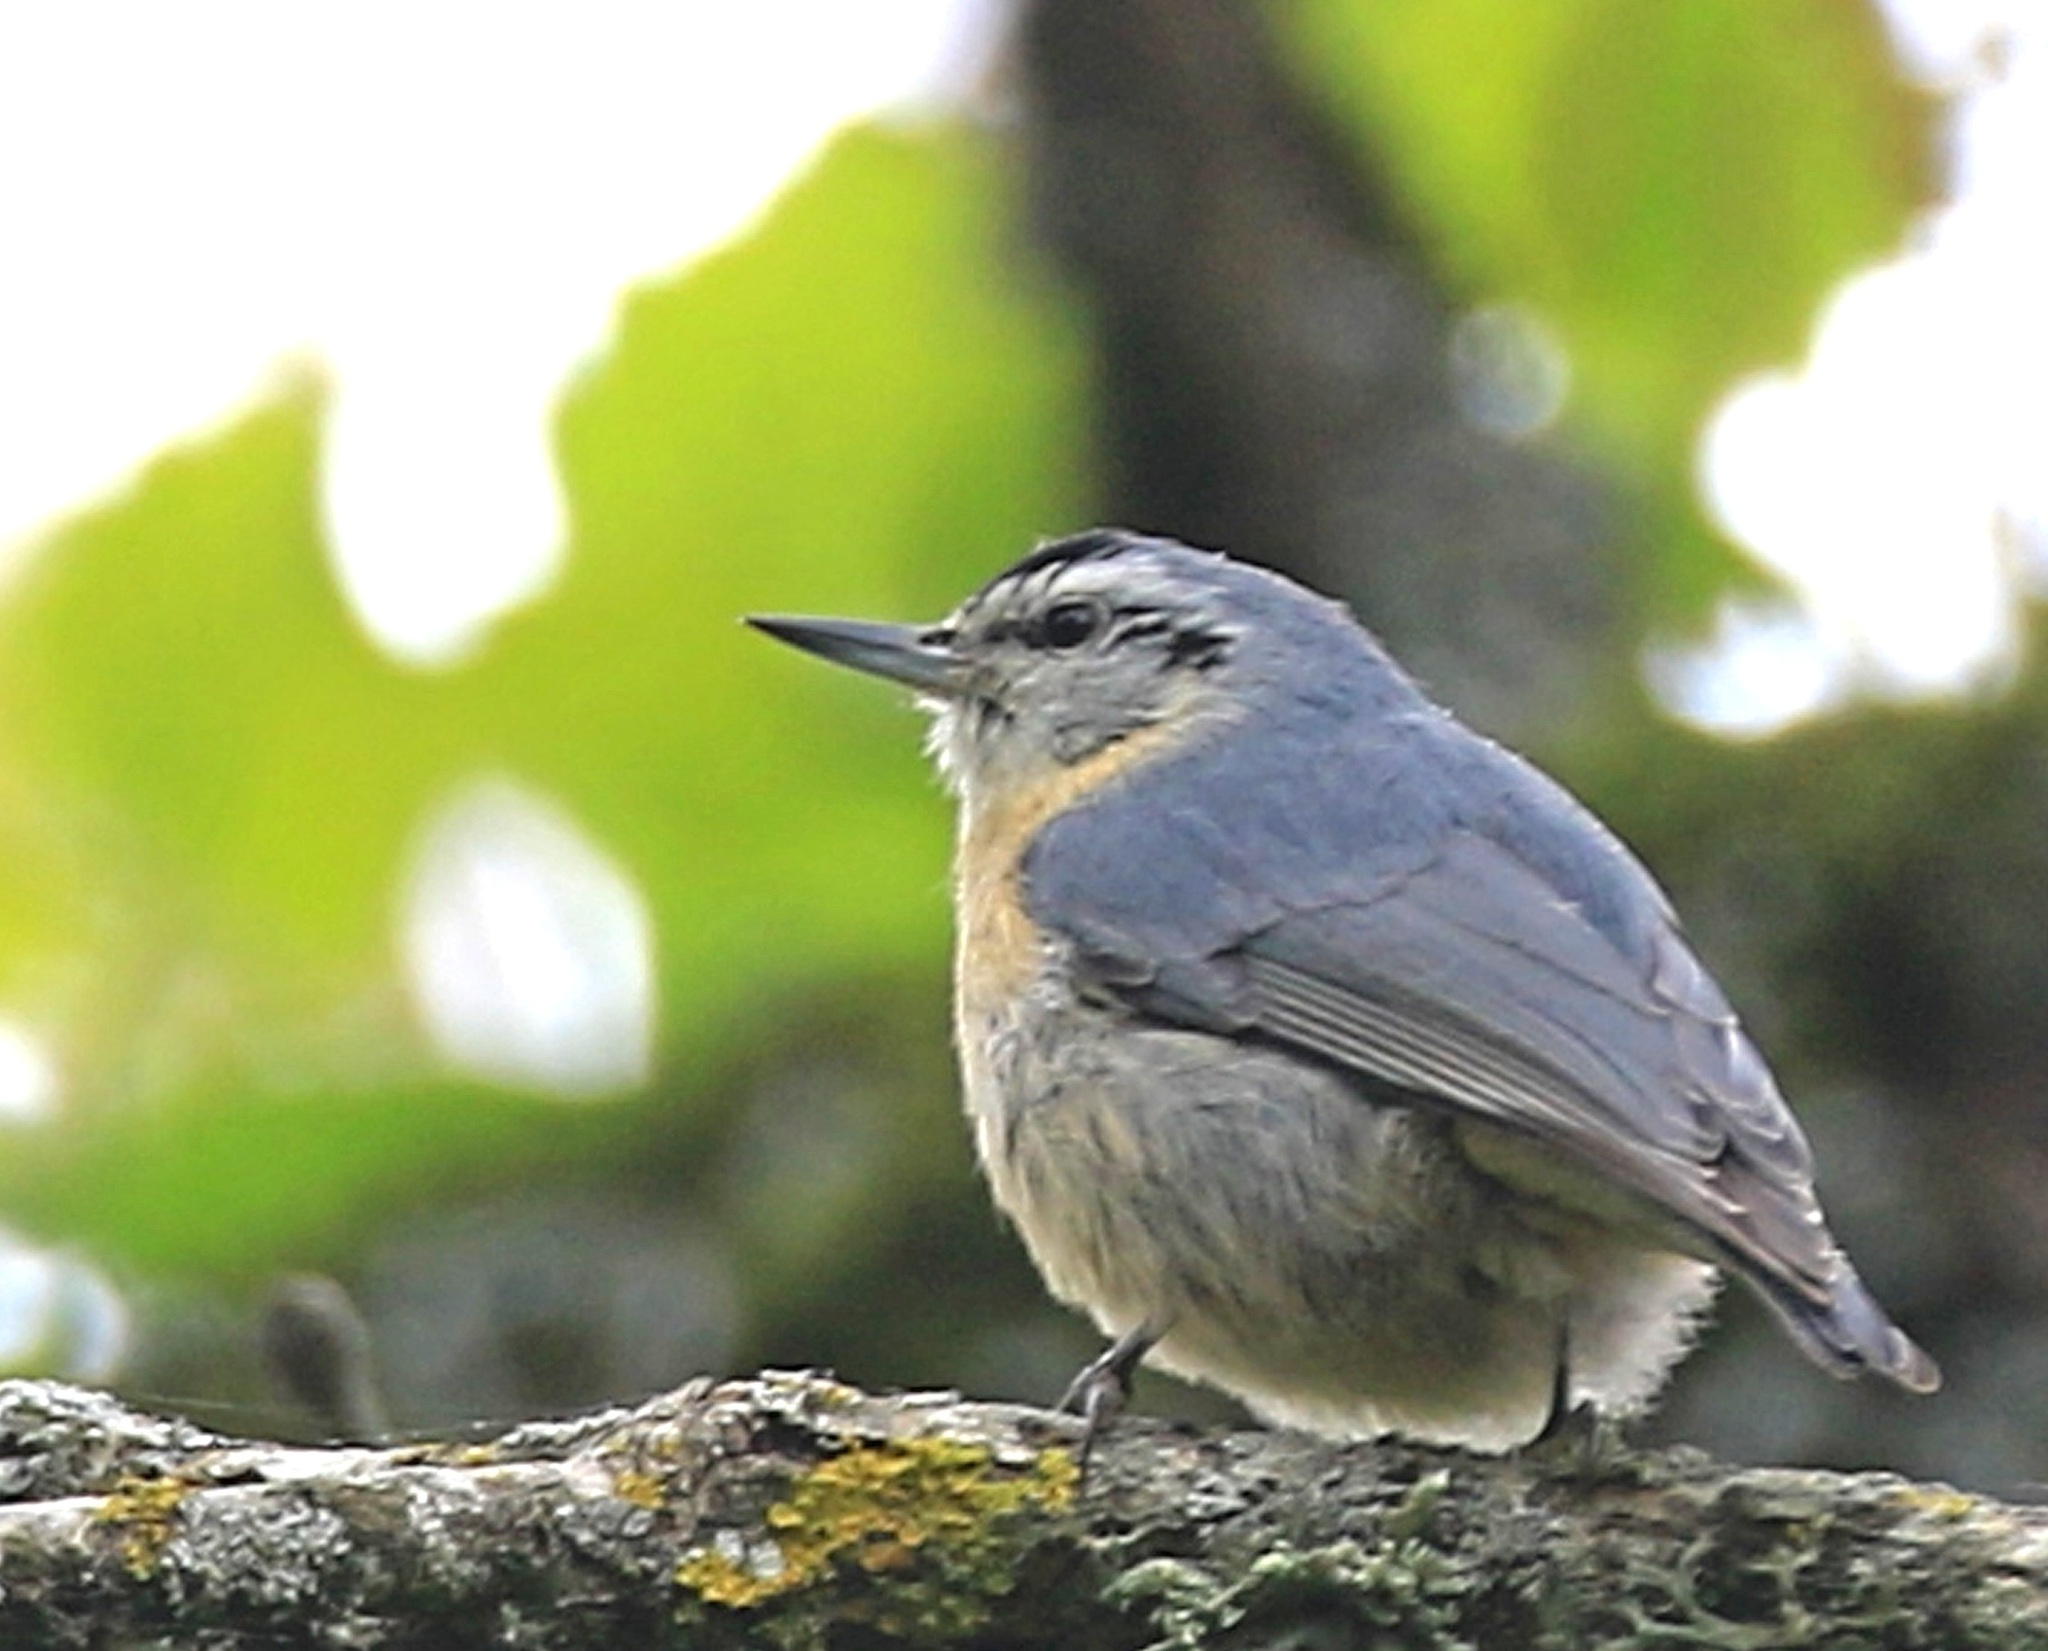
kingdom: Animalia
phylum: Chordata
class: Aves
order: Passeriformes
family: Sittidae
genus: Sitta
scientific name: Sitta ledanti
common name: Algerian nuthatch
